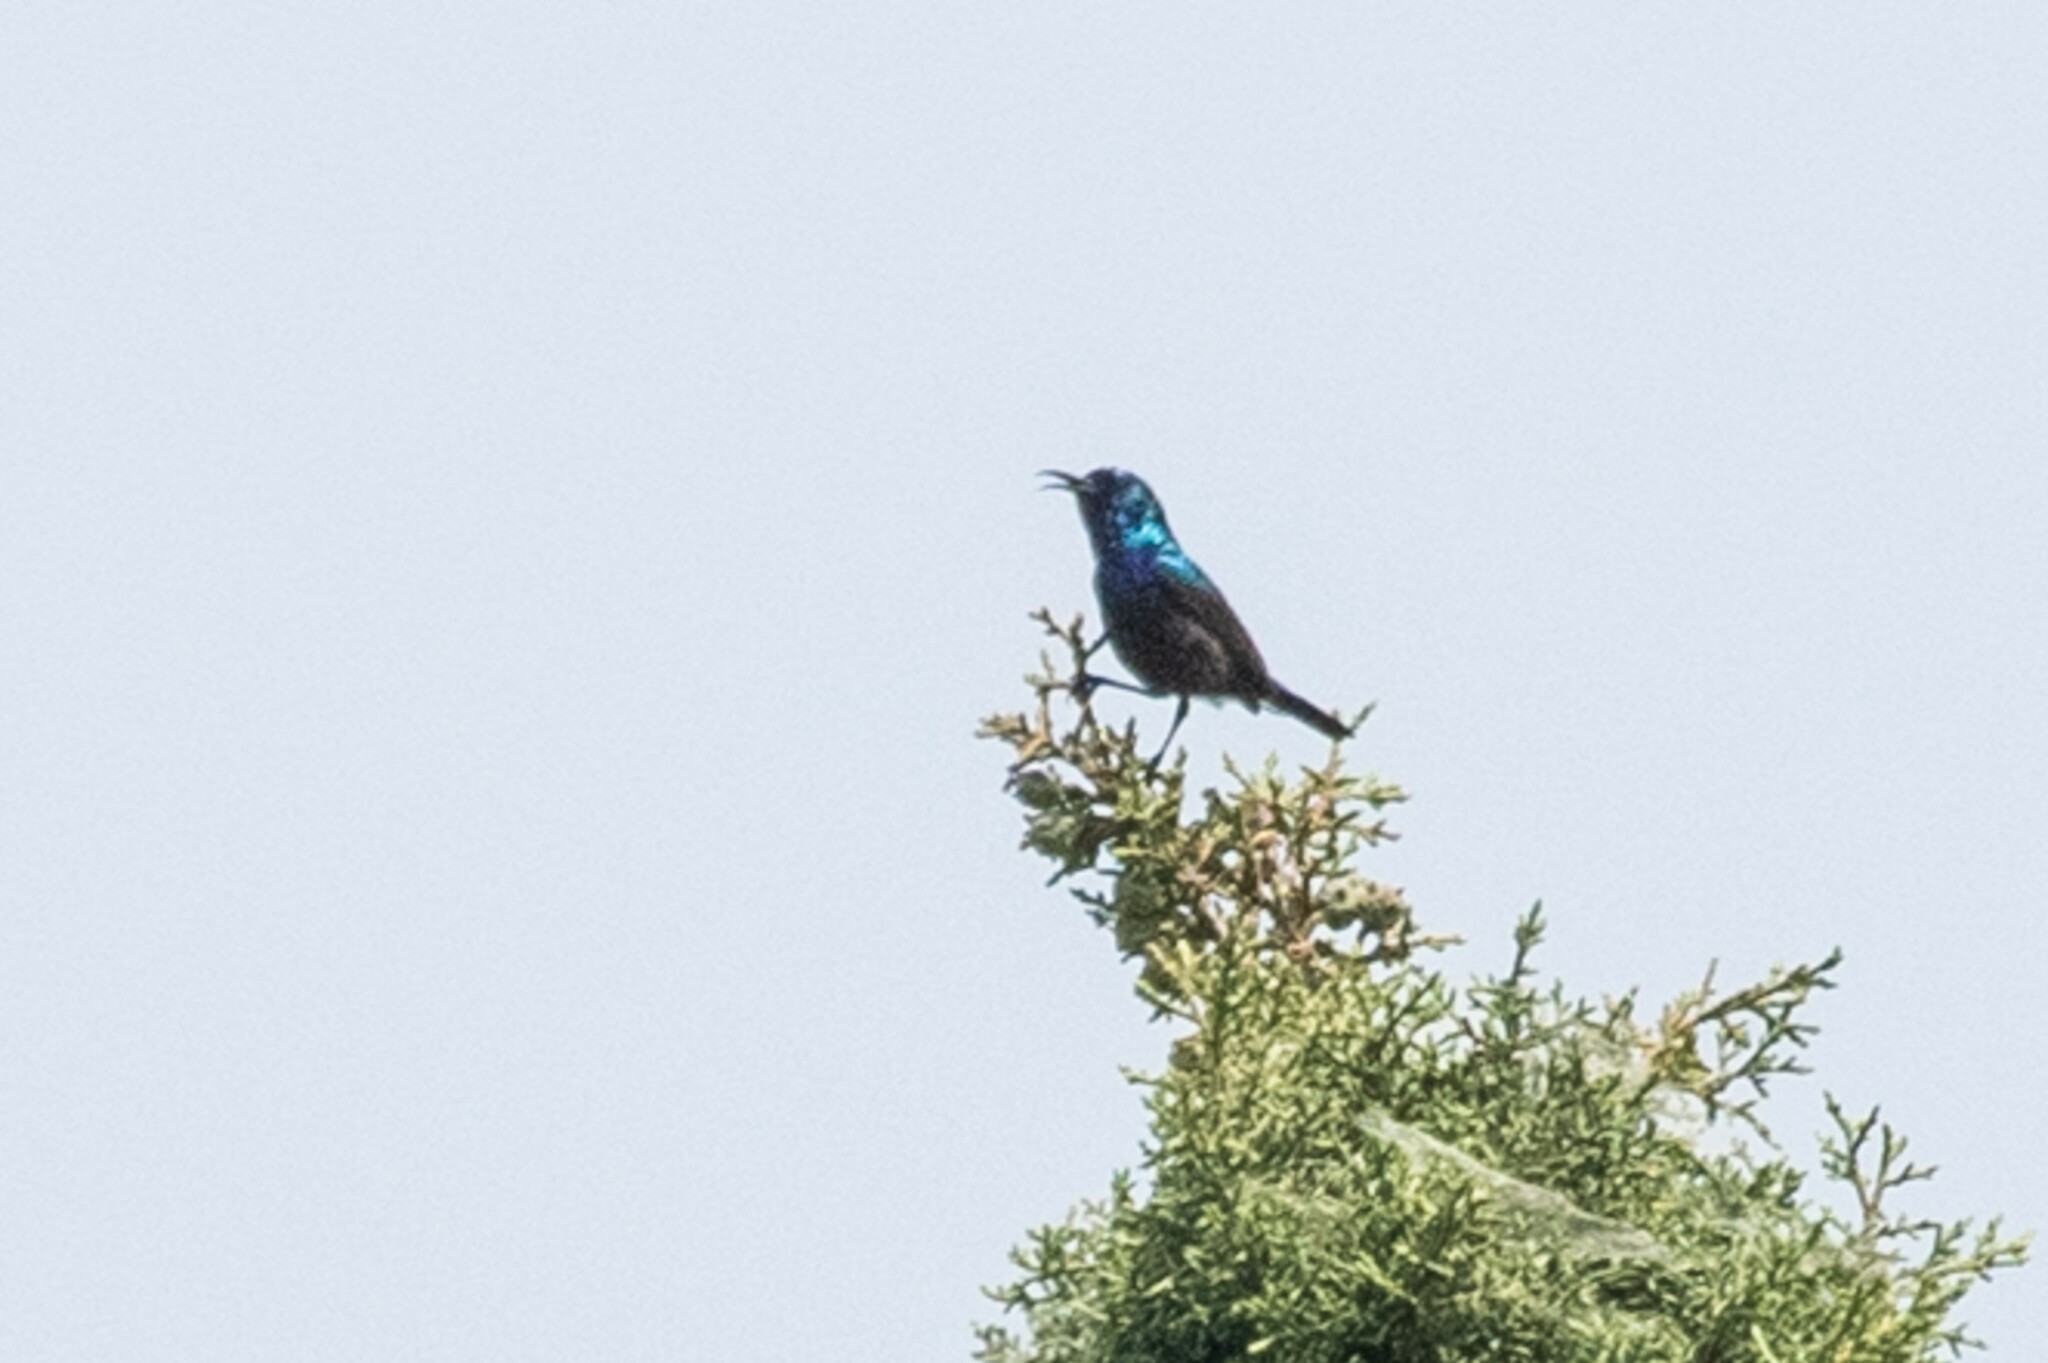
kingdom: Animalia
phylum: Chordata
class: Aves
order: Passeriformes
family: Nectariniidae
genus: Cinnyris
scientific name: Cinnyris osea
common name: Palestine sunbird
